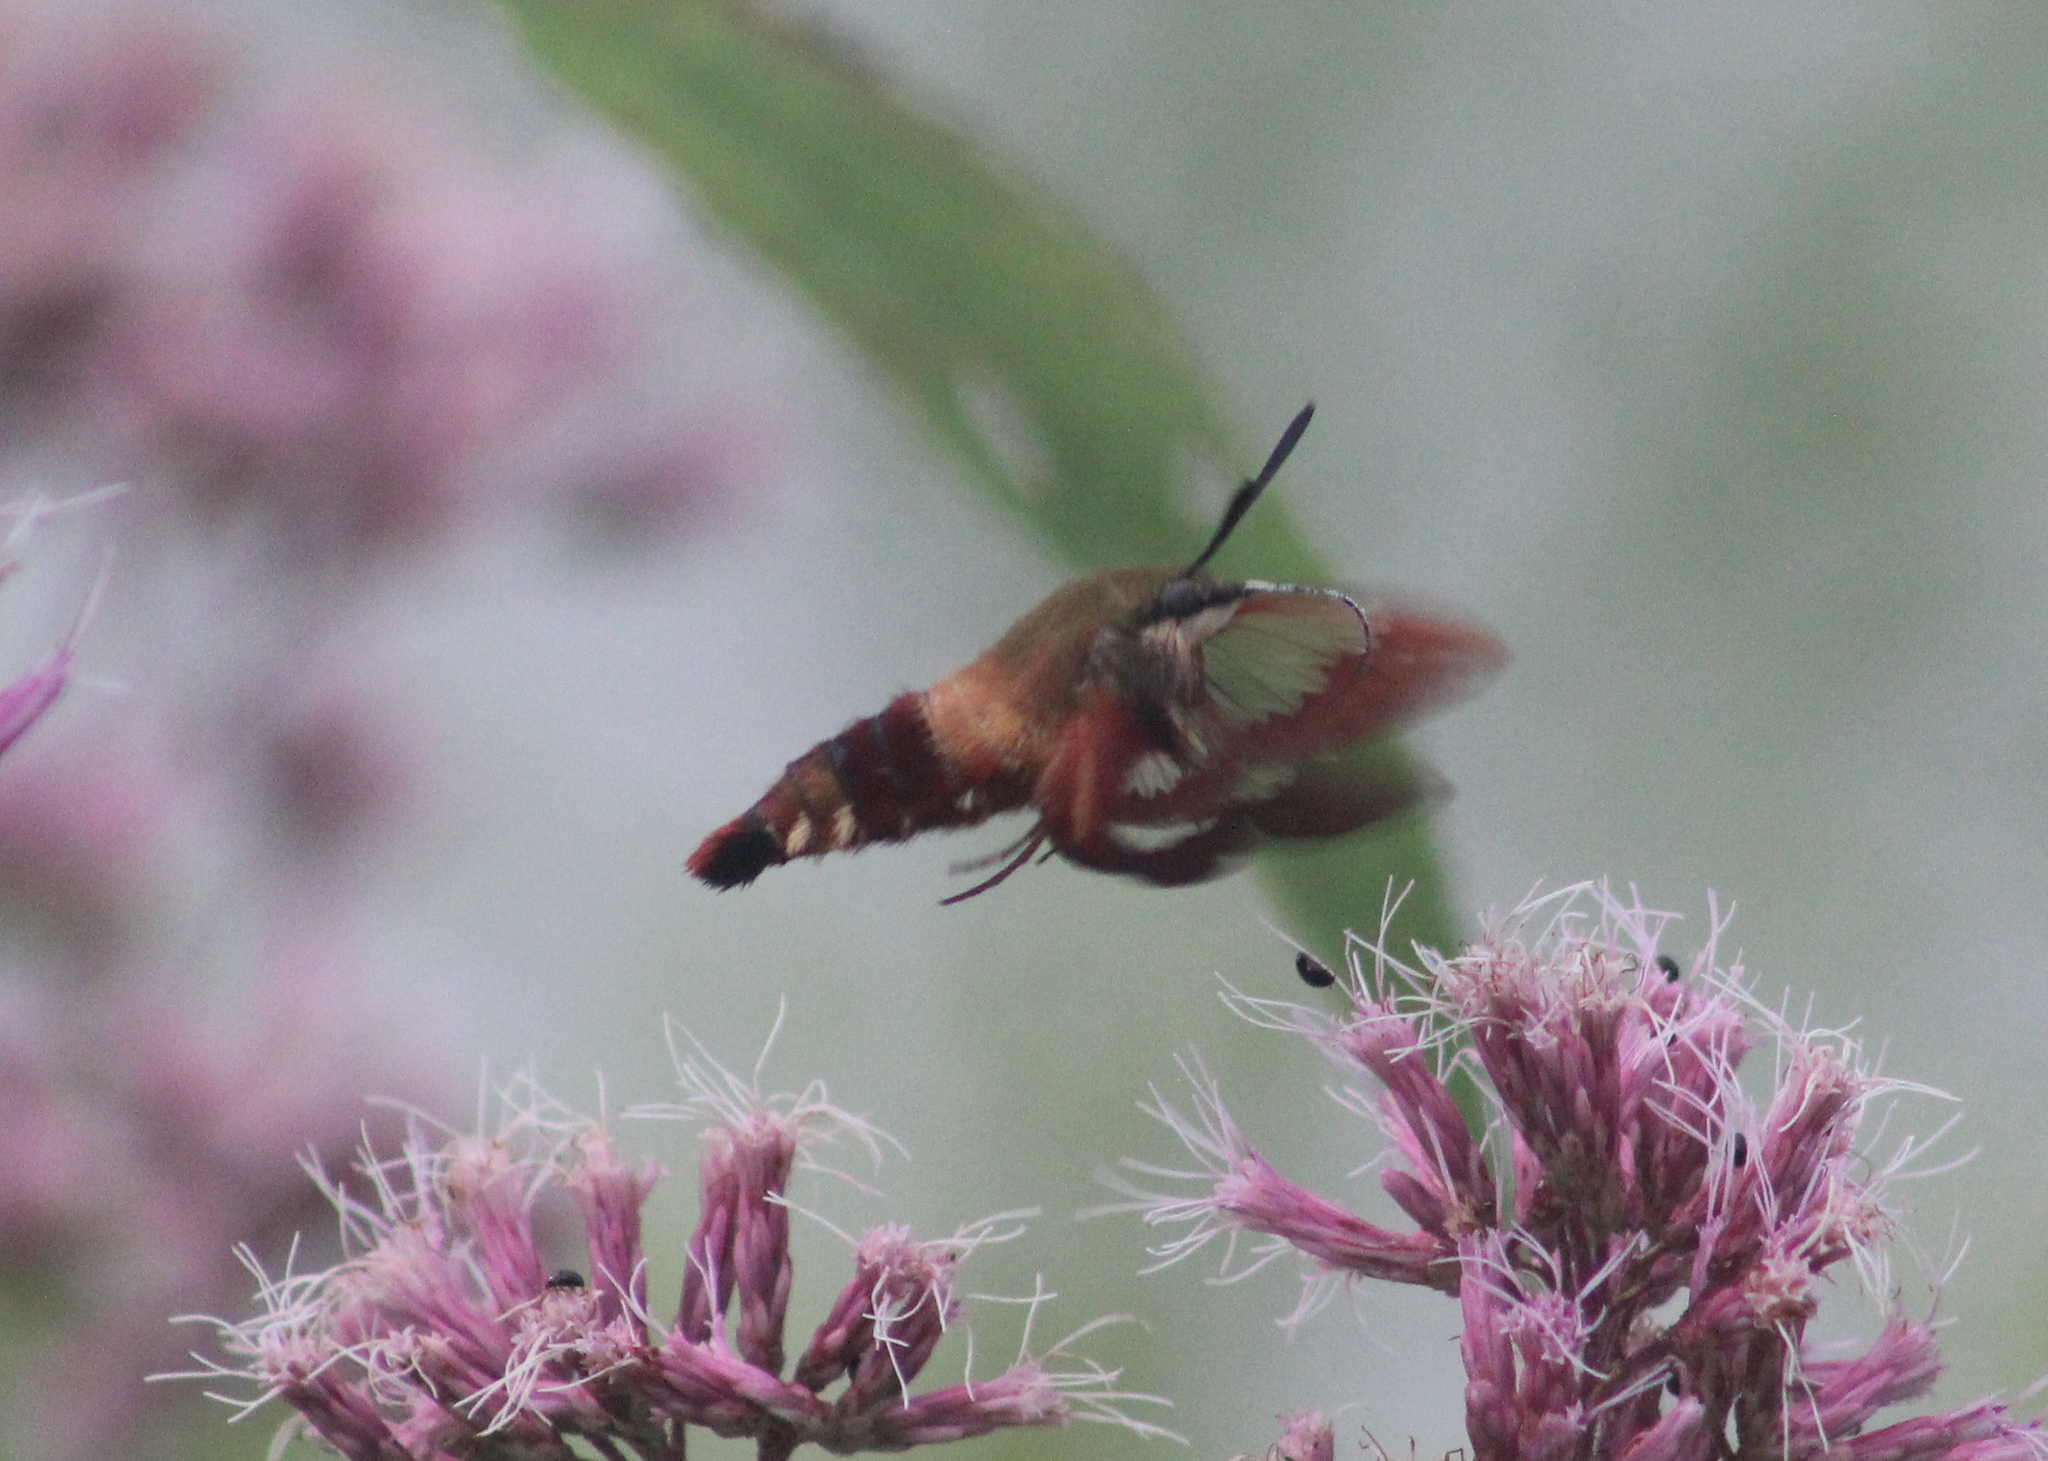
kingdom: Animalia
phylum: Arthropoda
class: Insecta
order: Lepidoptera
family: Sphingidae
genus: Hemaris
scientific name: Hemaris thysbe
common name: Common clear-wing
